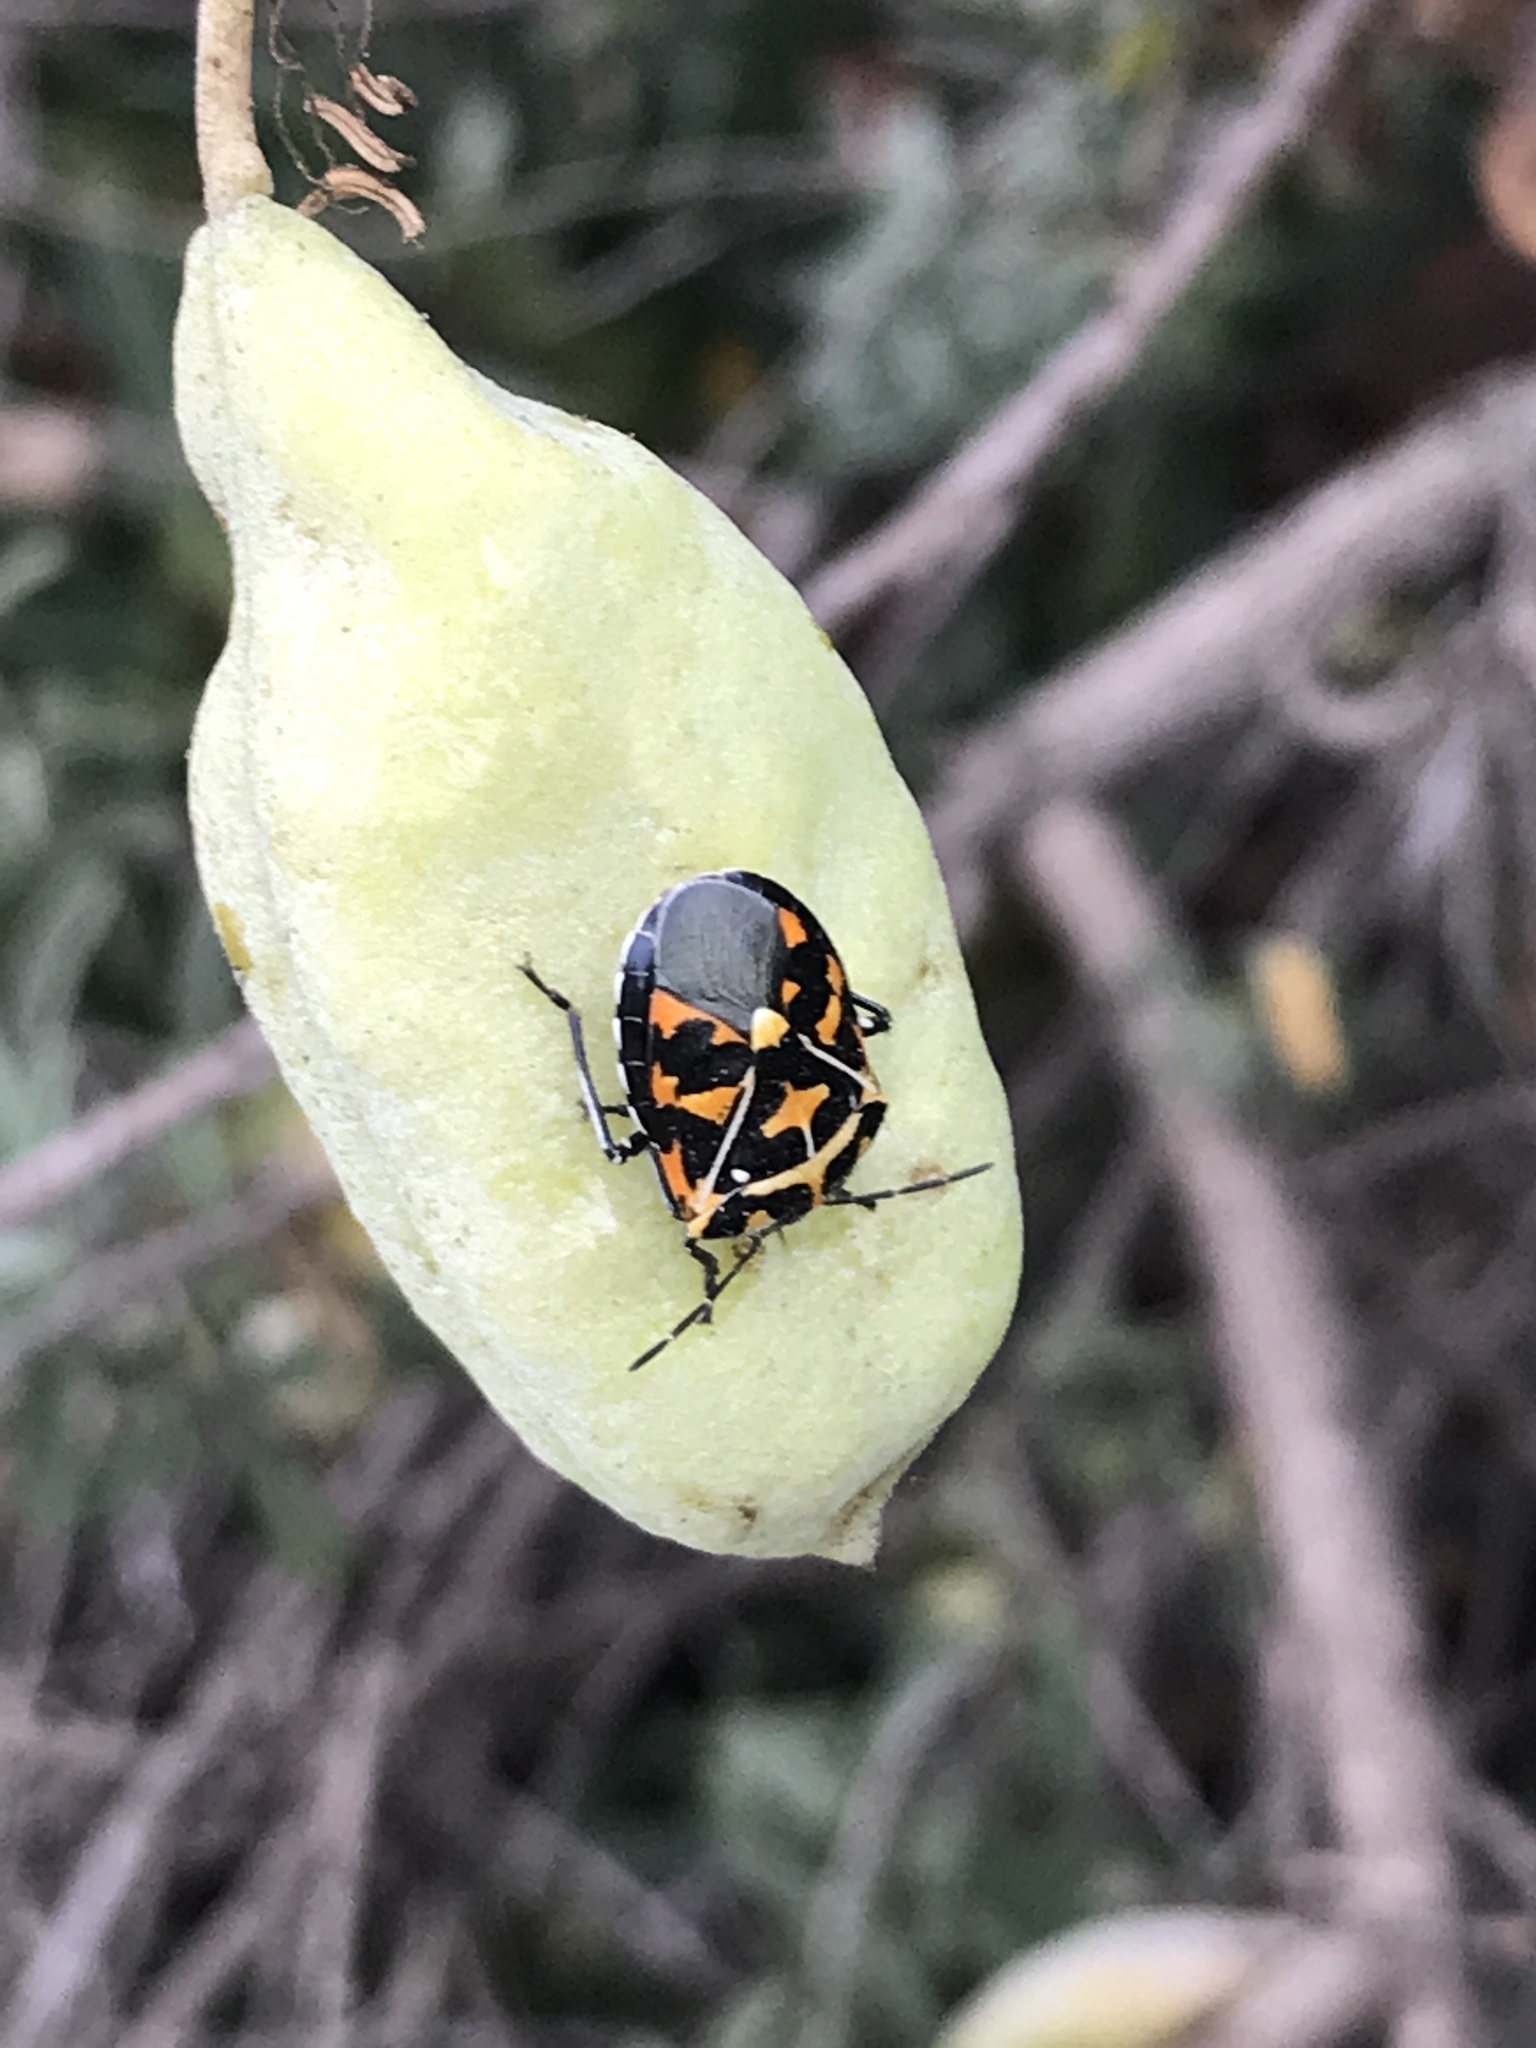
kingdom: Animalia
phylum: Arthropoda
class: Insecta
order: Hemiptera
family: Pentatomidae
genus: Murgantia
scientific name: Murgantia histrionica
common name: Harlequin bug
